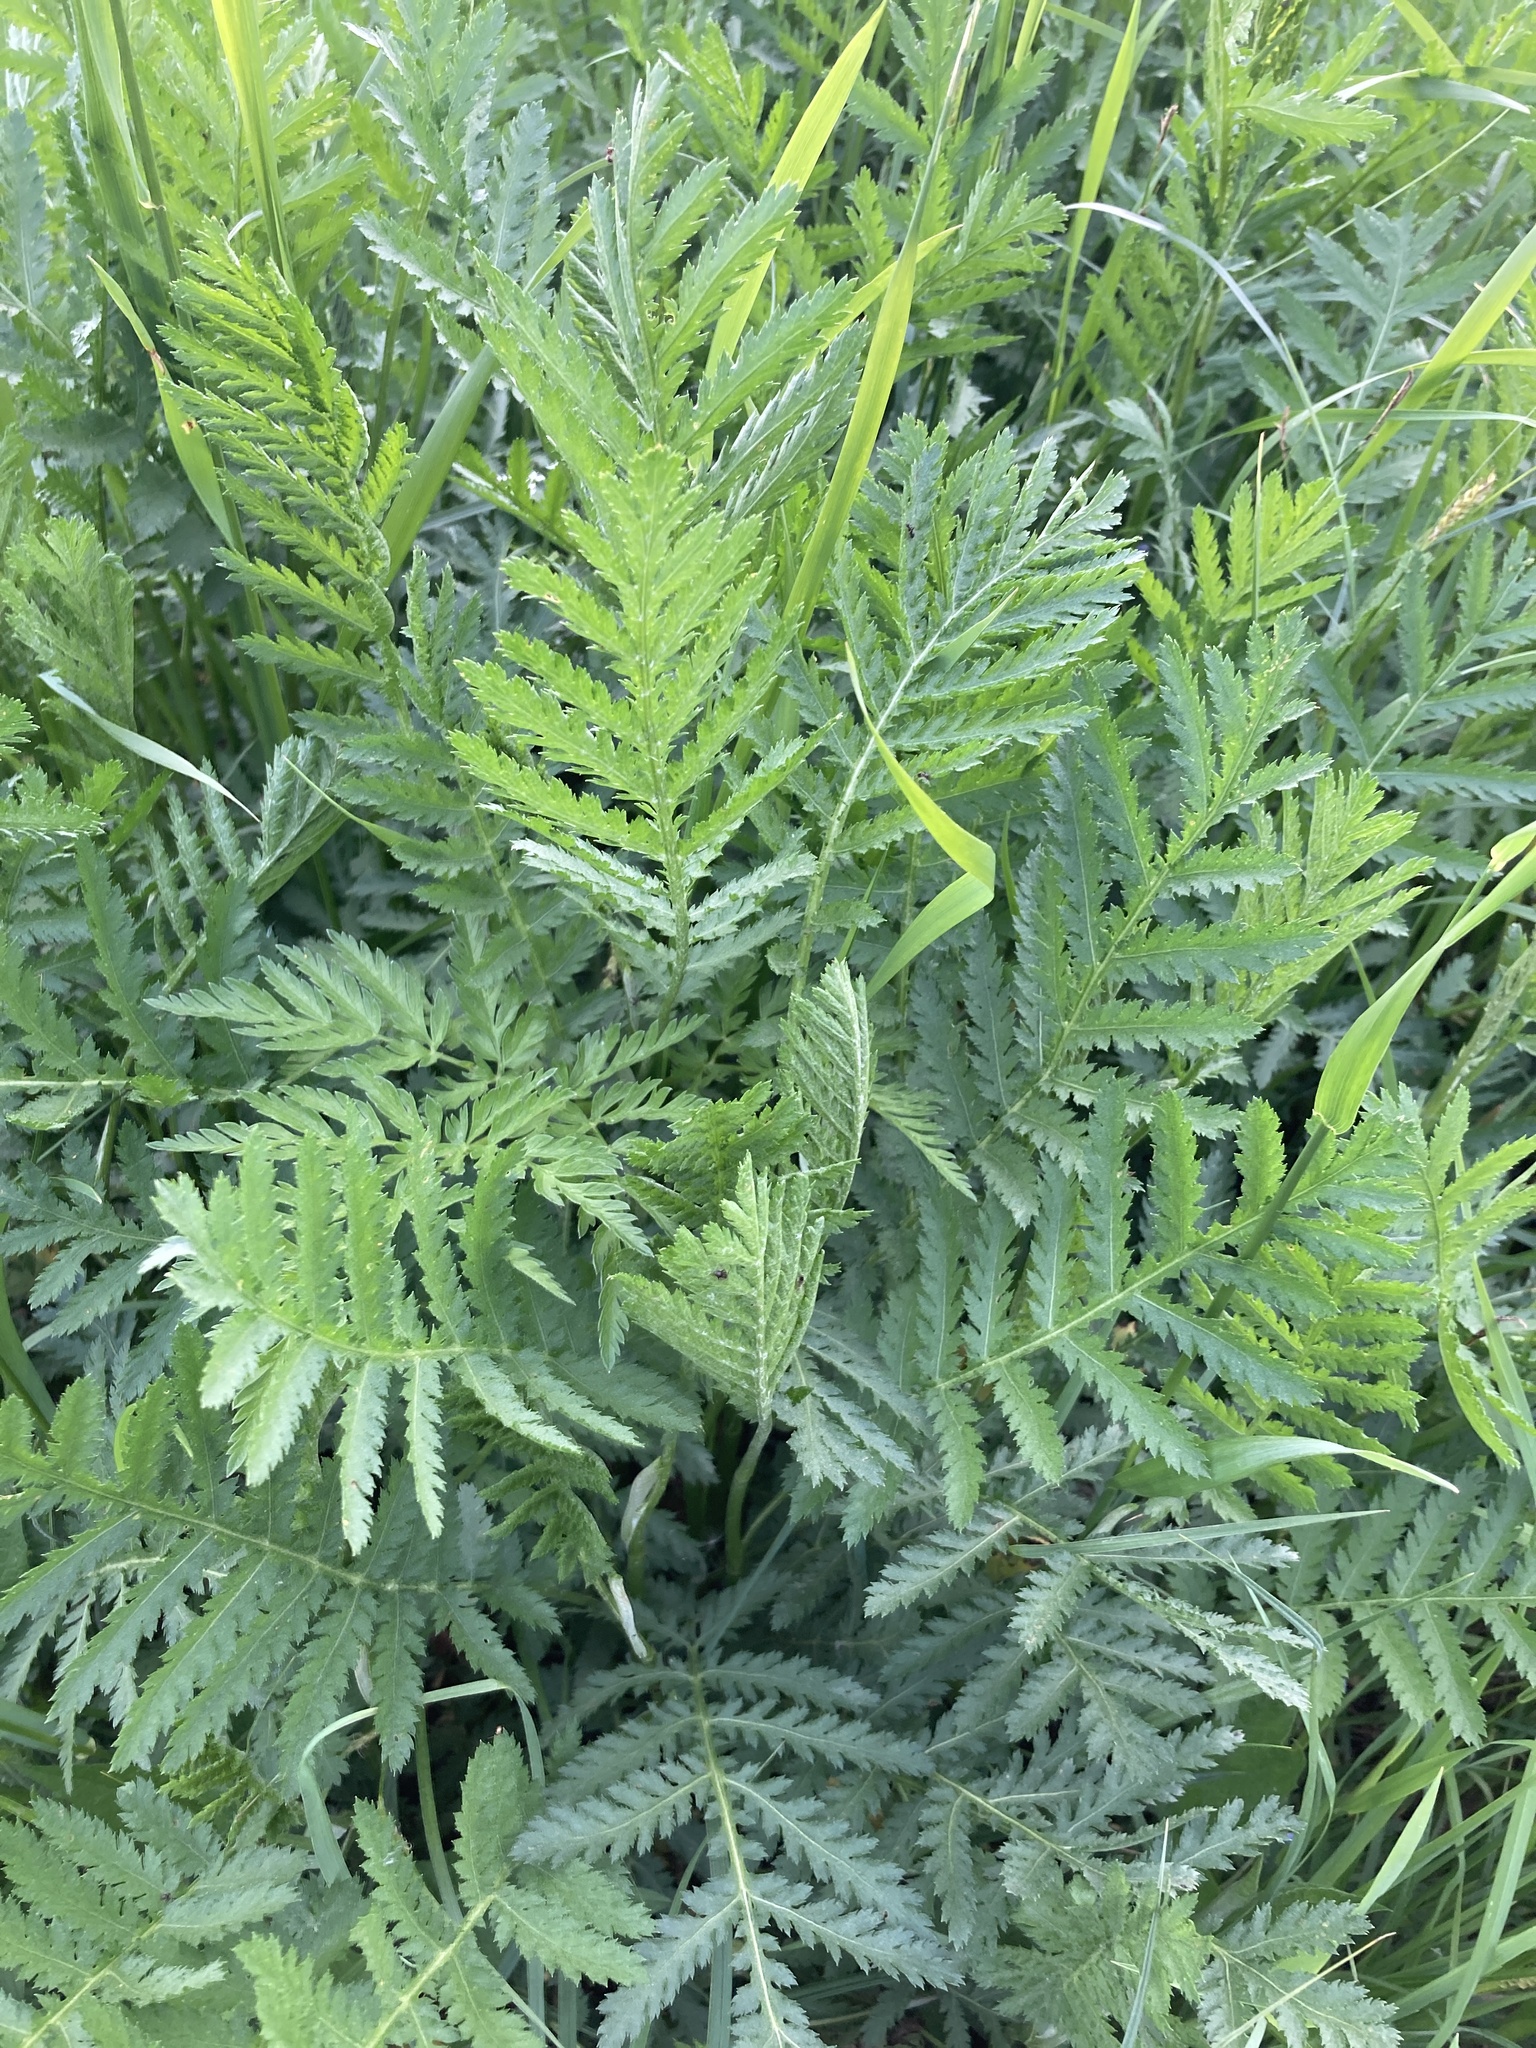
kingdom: Plantae
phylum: Tracheophyta
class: Magnoliopsida
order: Asterales
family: Asteraceae
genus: Tanacetum
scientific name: Tanacetum vulgare
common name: Common tansy
